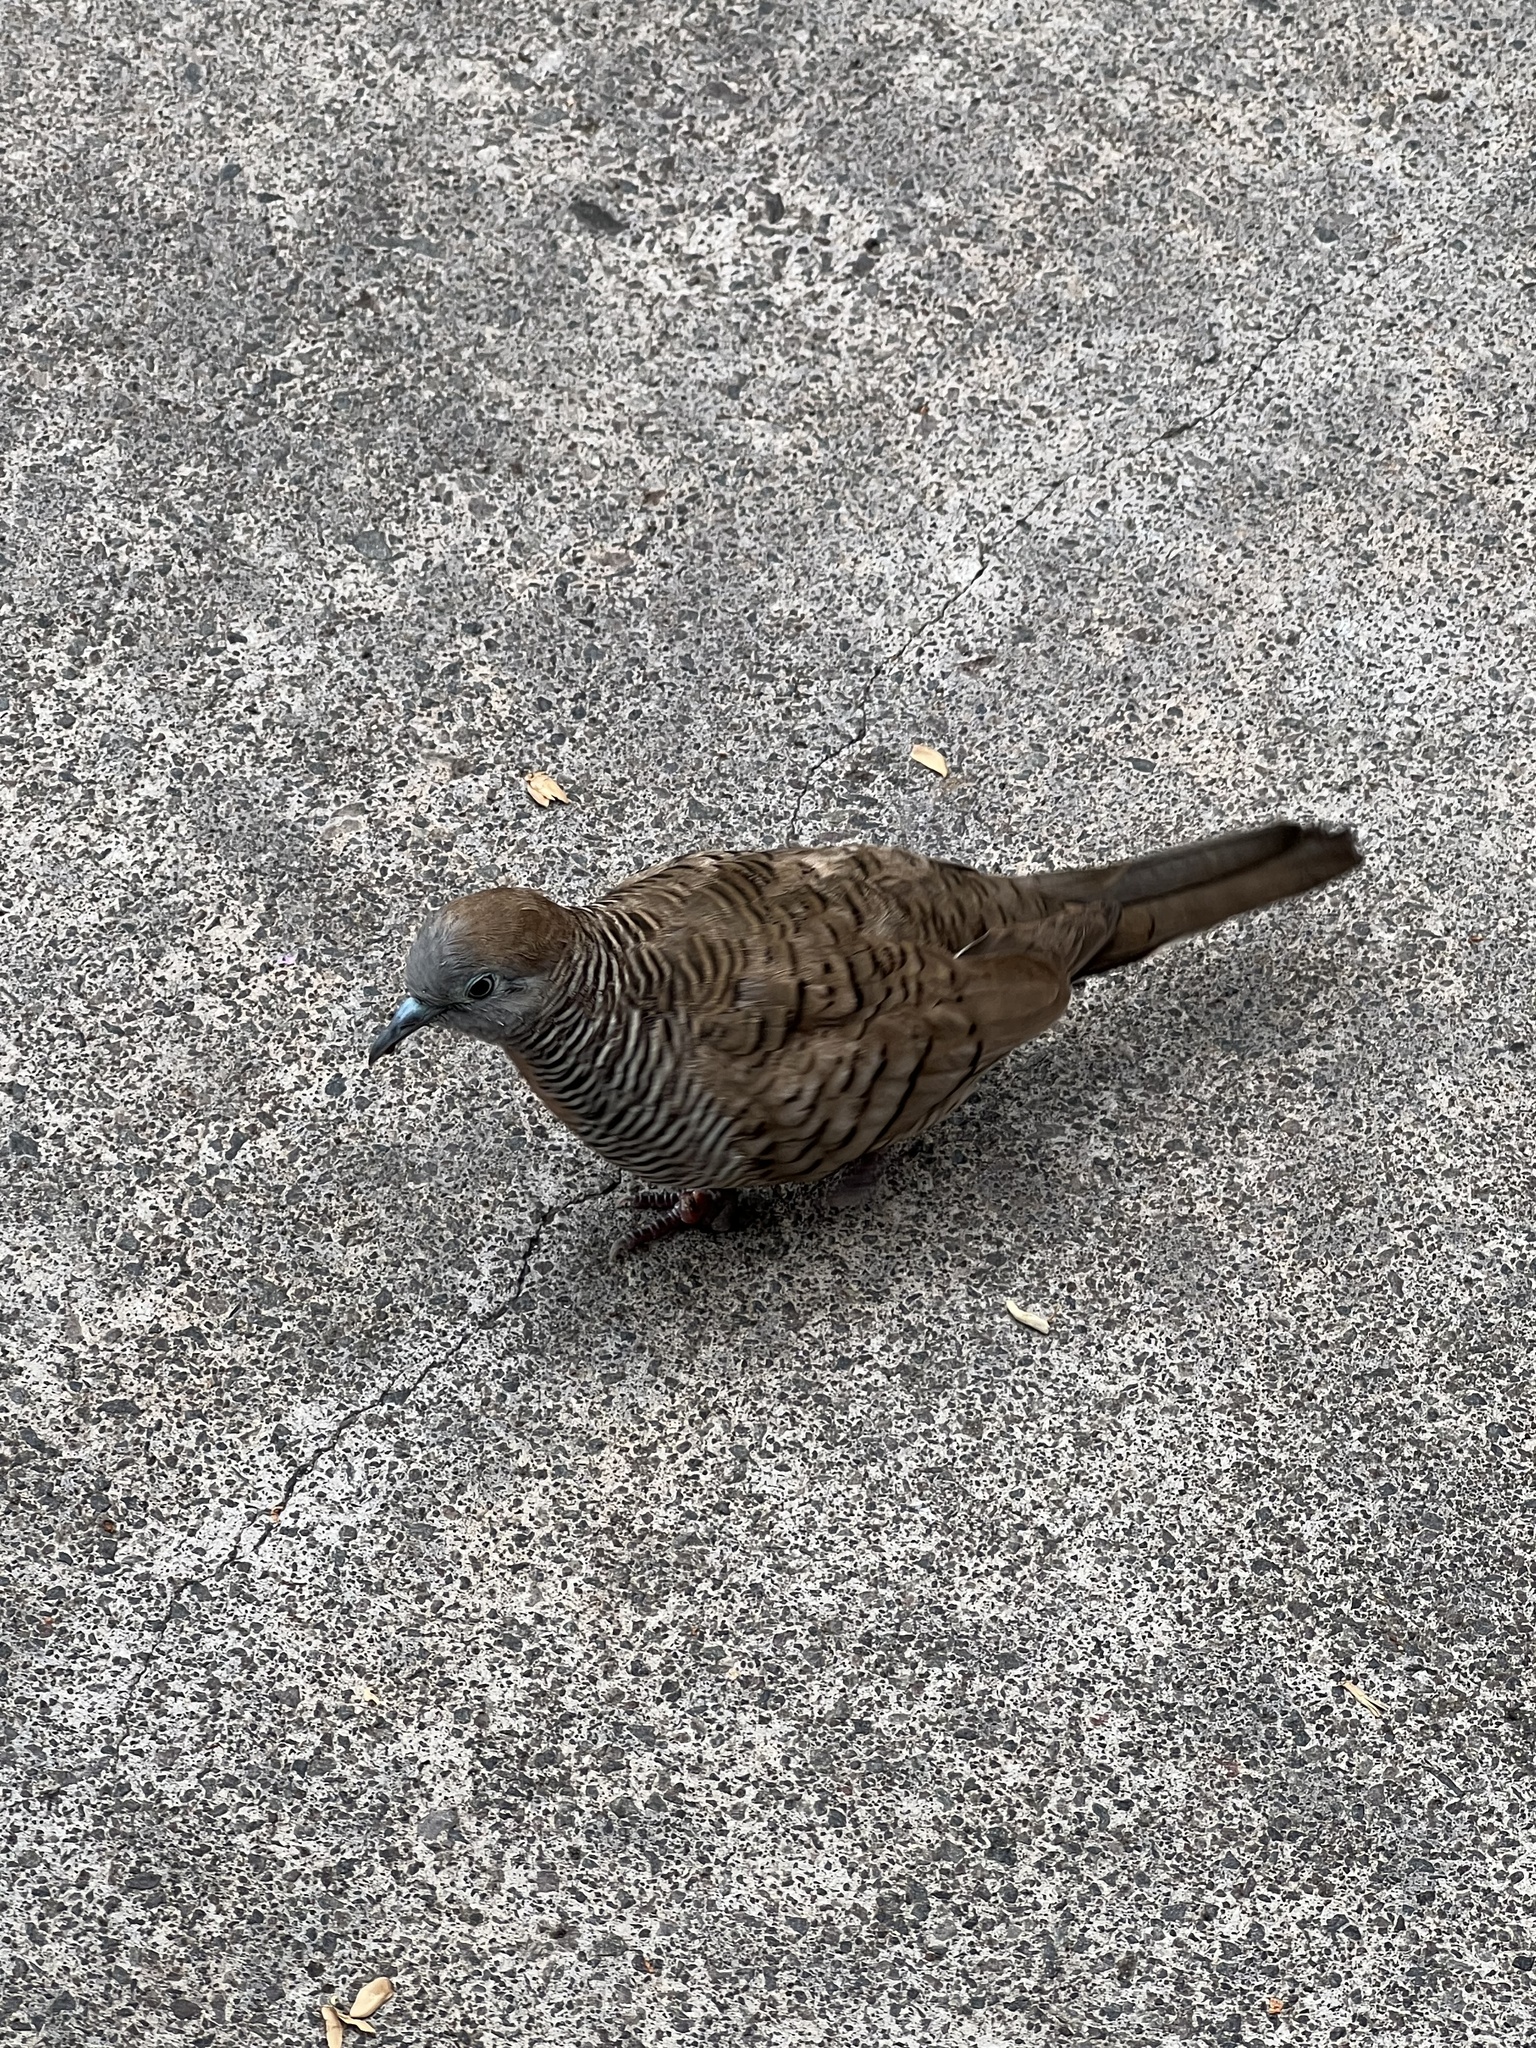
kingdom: Animalia
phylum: Chordata
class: Aves
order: Columbiformes
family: Columbidae
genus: Geopelia
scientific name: Geopelia striata
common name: Zebra dove
